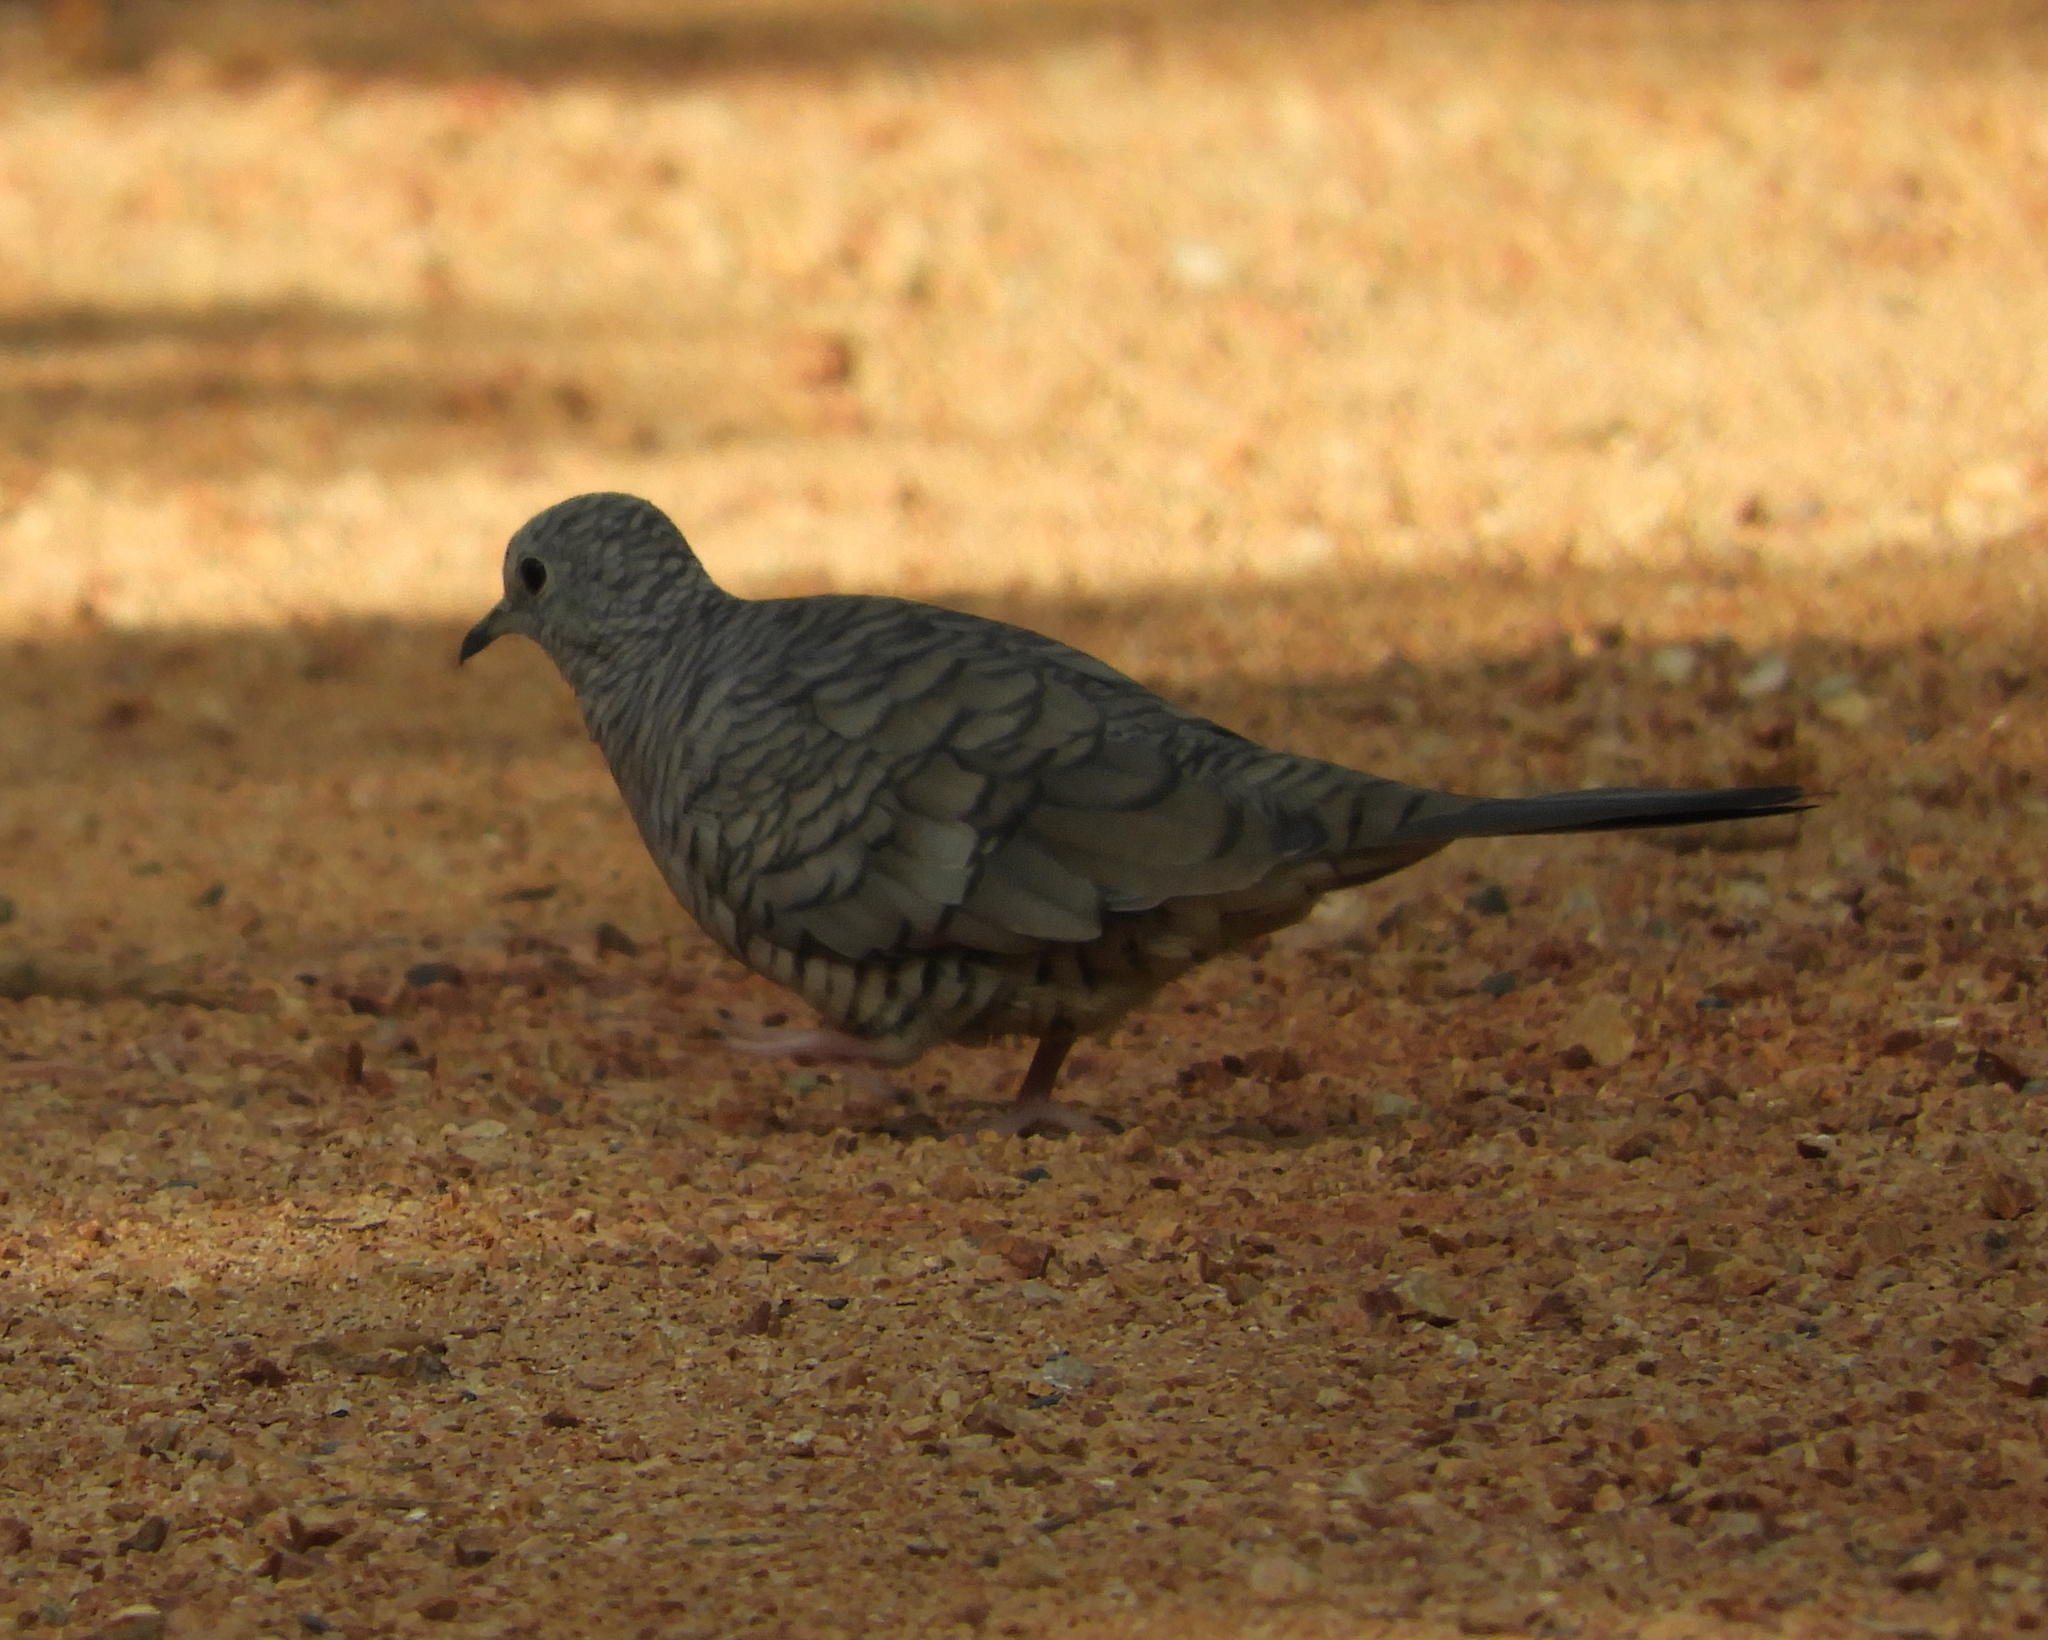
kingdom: Animalia
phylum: Chordata
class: Aves
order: Columbiformes
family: Columbidae
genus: Columbina
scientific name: Columbina inca
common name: Inca dove
